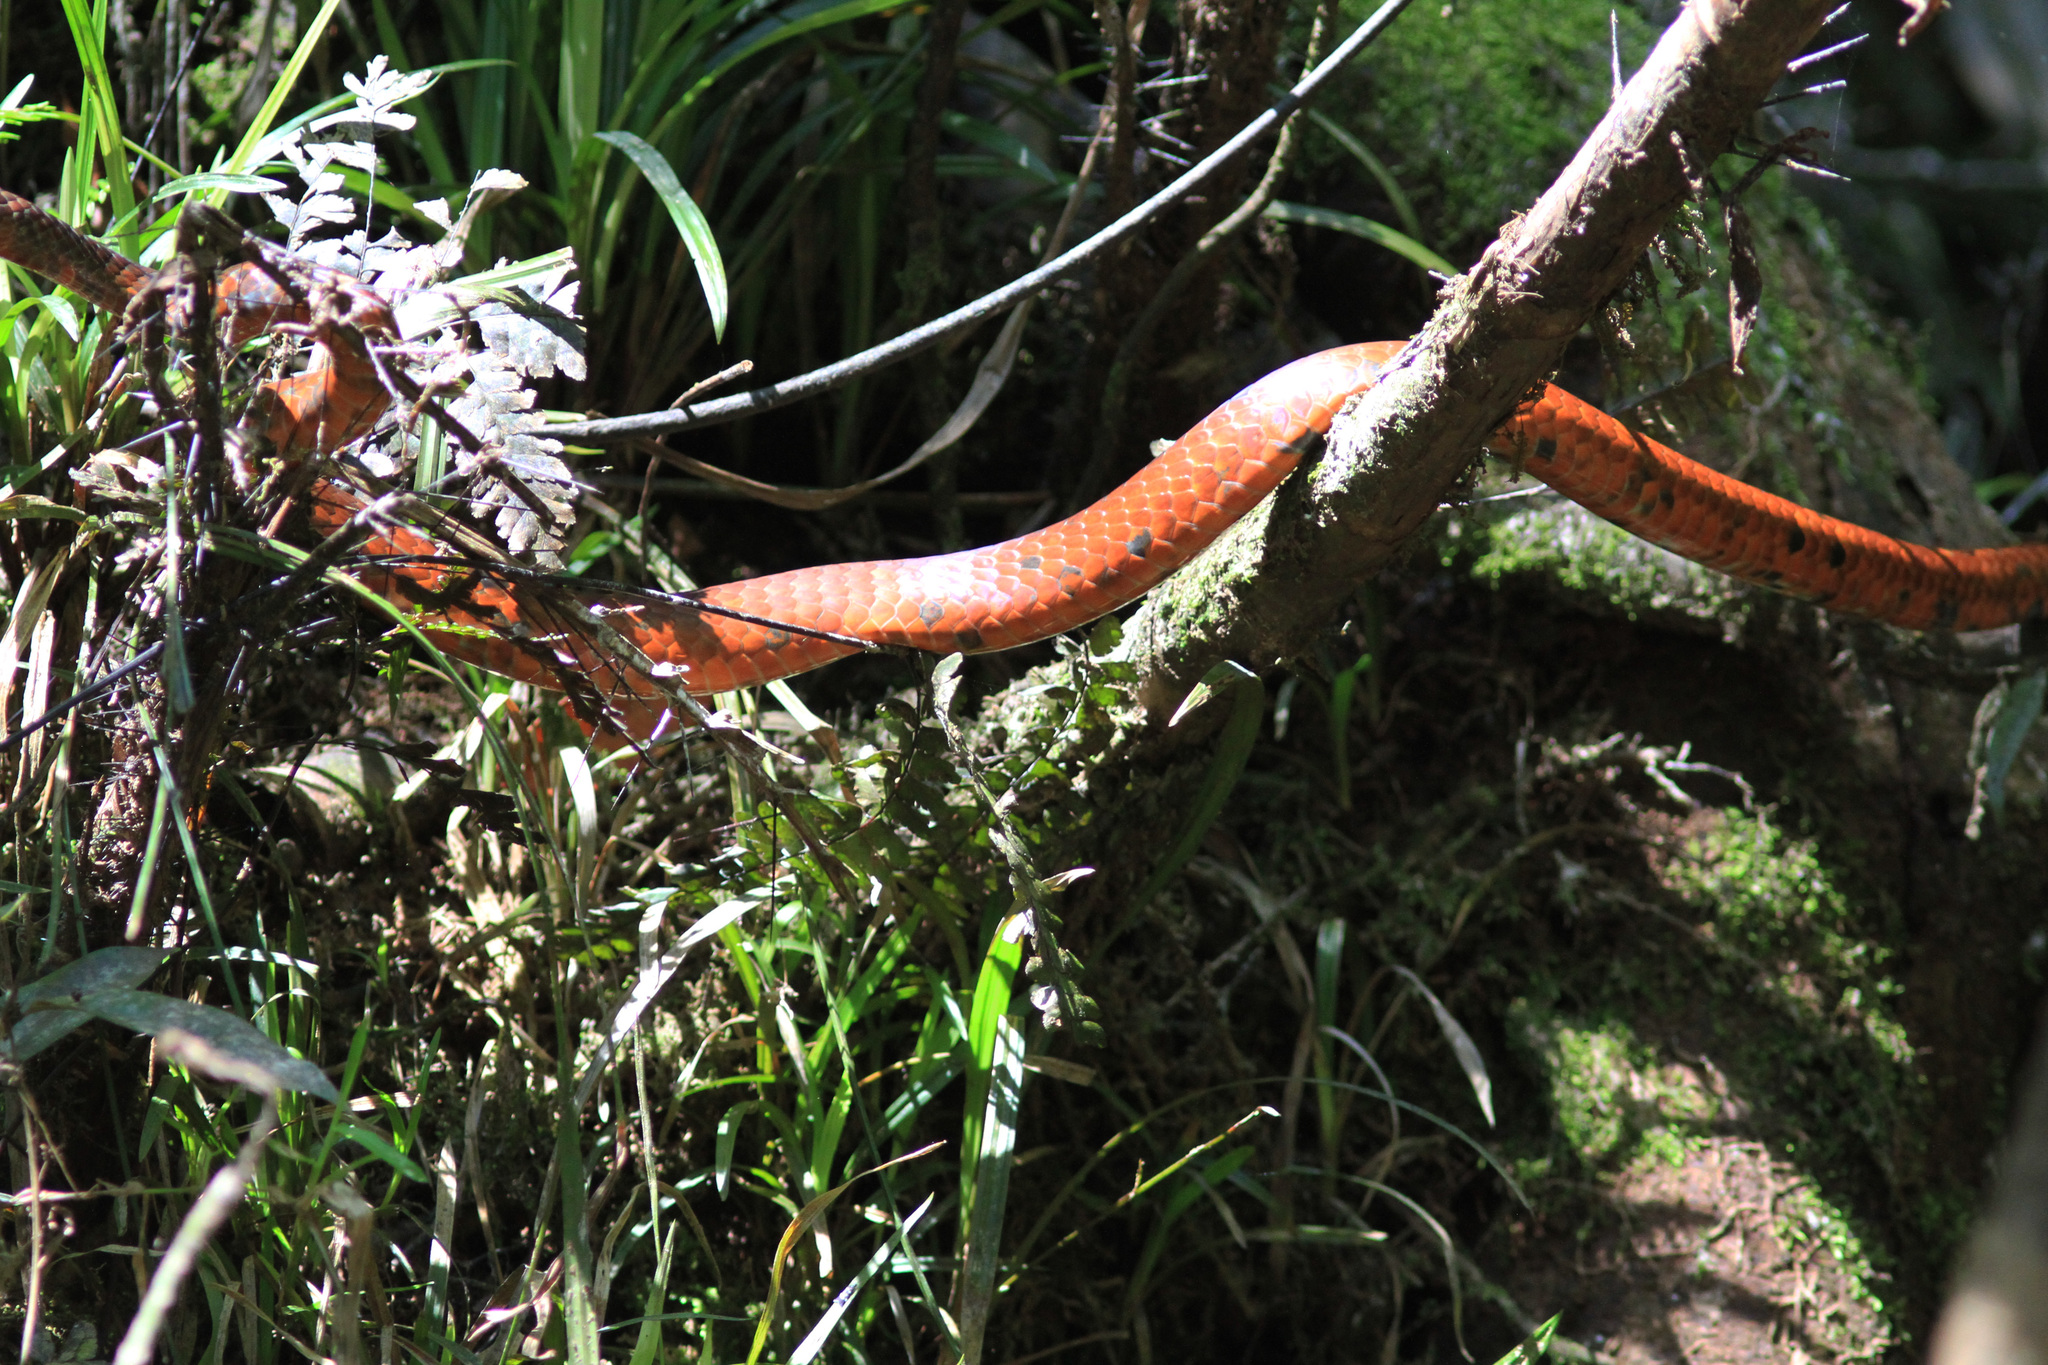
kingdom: Animalia
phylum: Chordata
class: Squamata
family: Colubridae
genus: Chironius
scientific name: Chironius scurrulus
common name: Wagler's sipo
